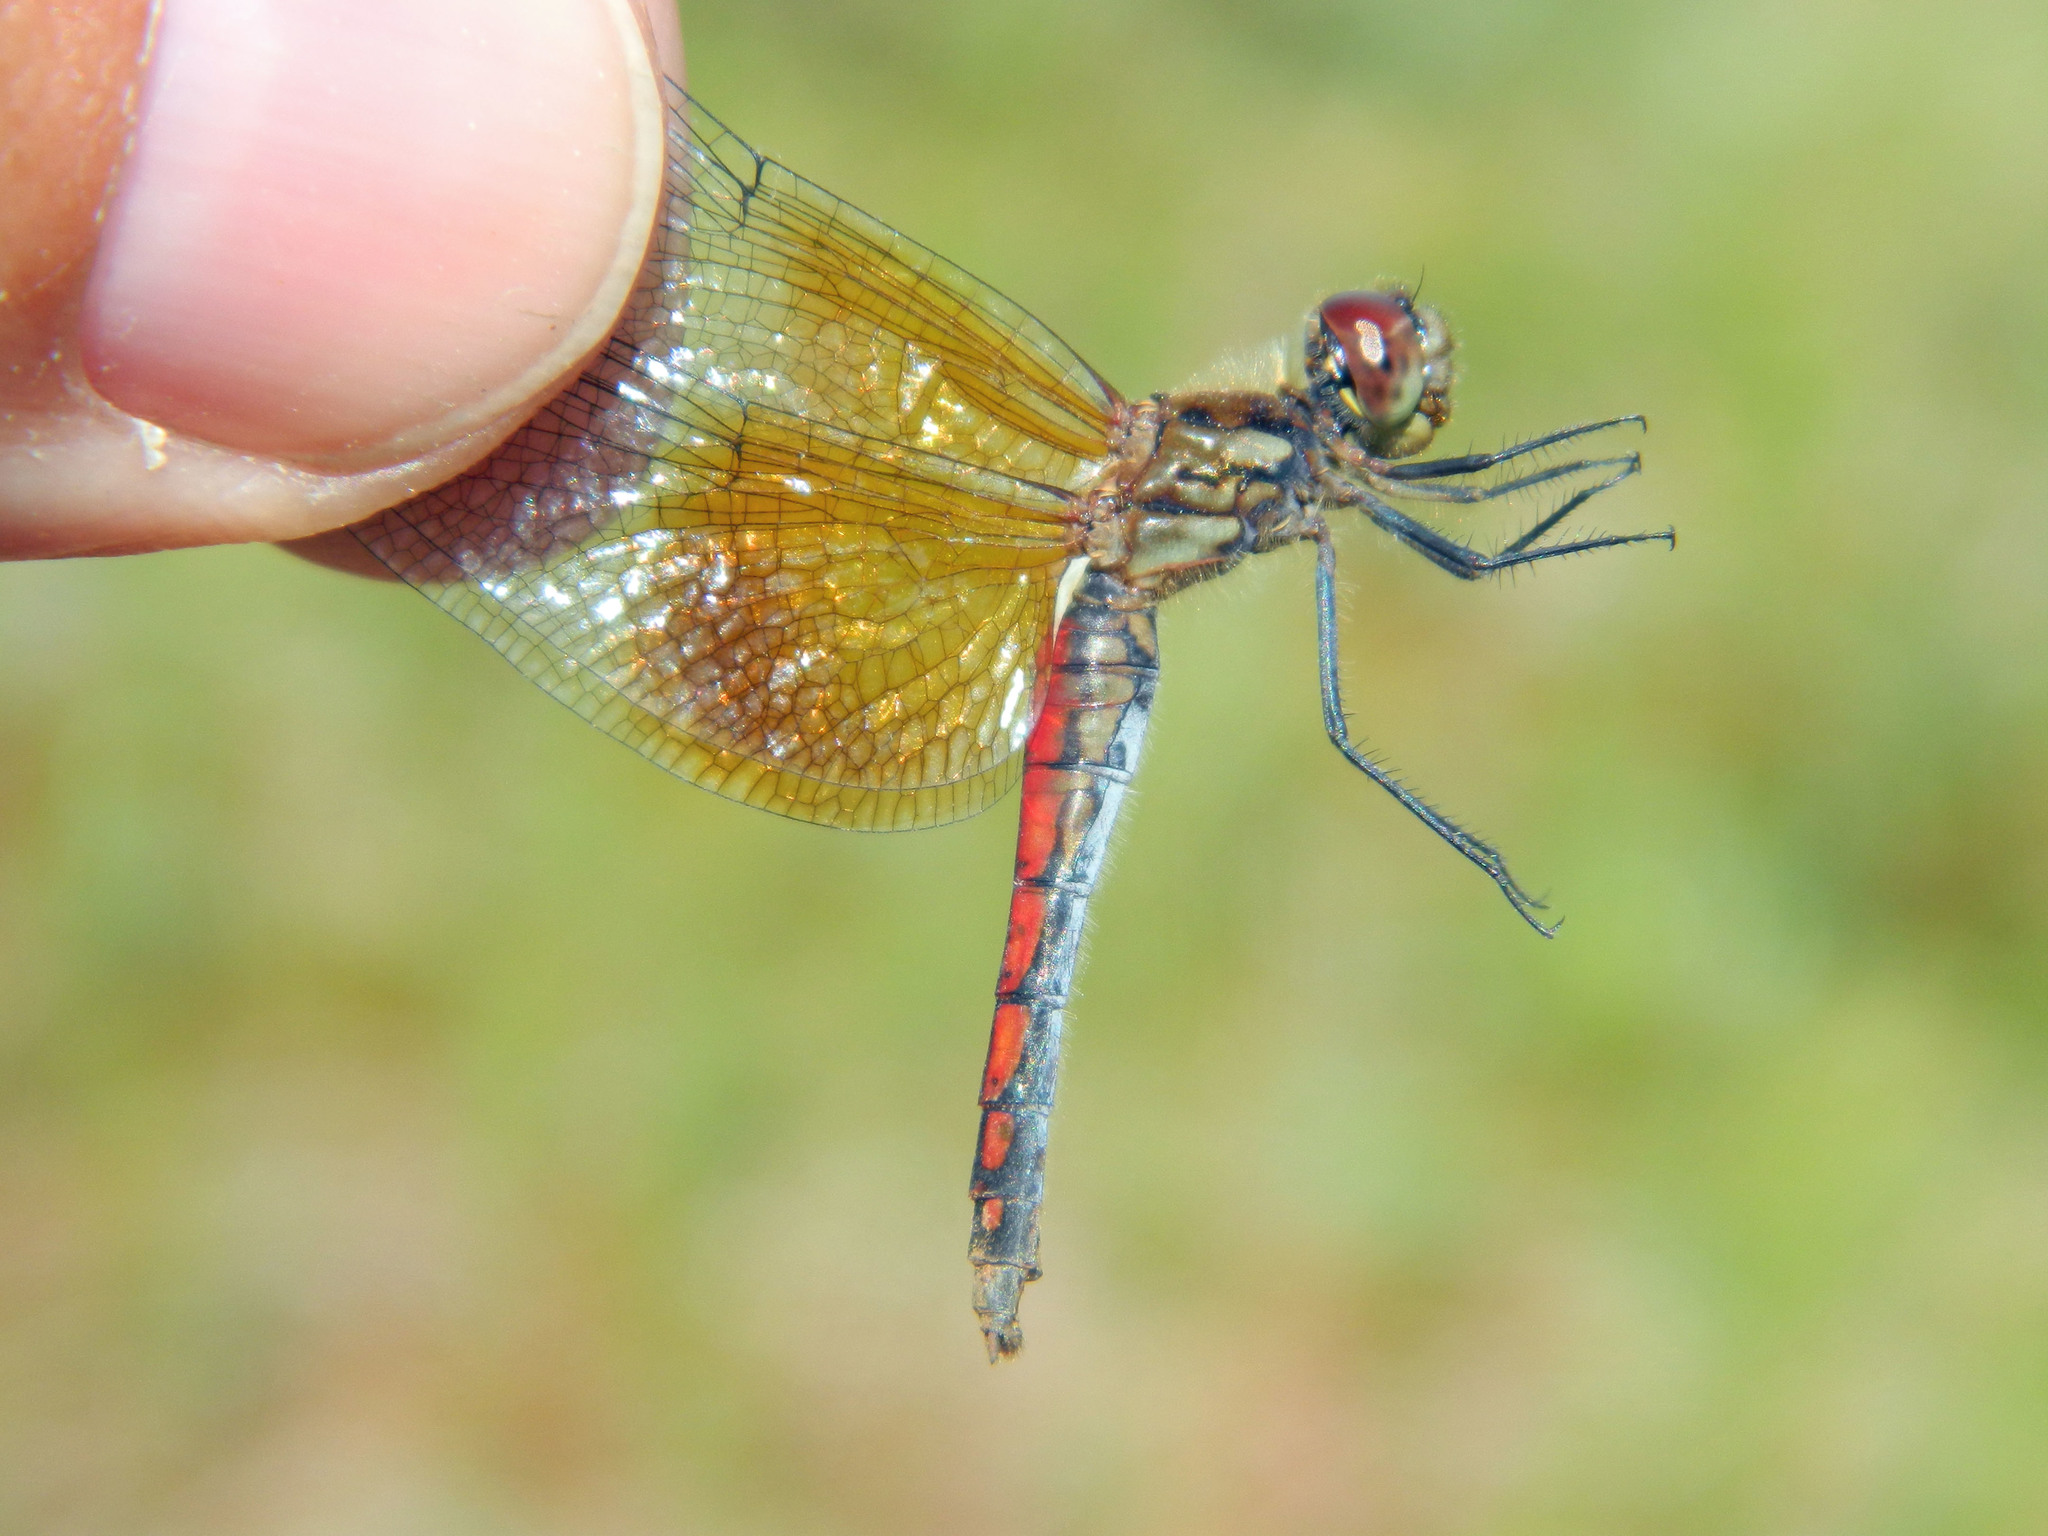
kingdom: Animalia
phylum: Arthropoda
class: Insecta
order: Odonata
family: Libellulidae
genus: Sympetrum
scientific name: Sympetrum semicinctum
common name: Band-winged meadowhawk
